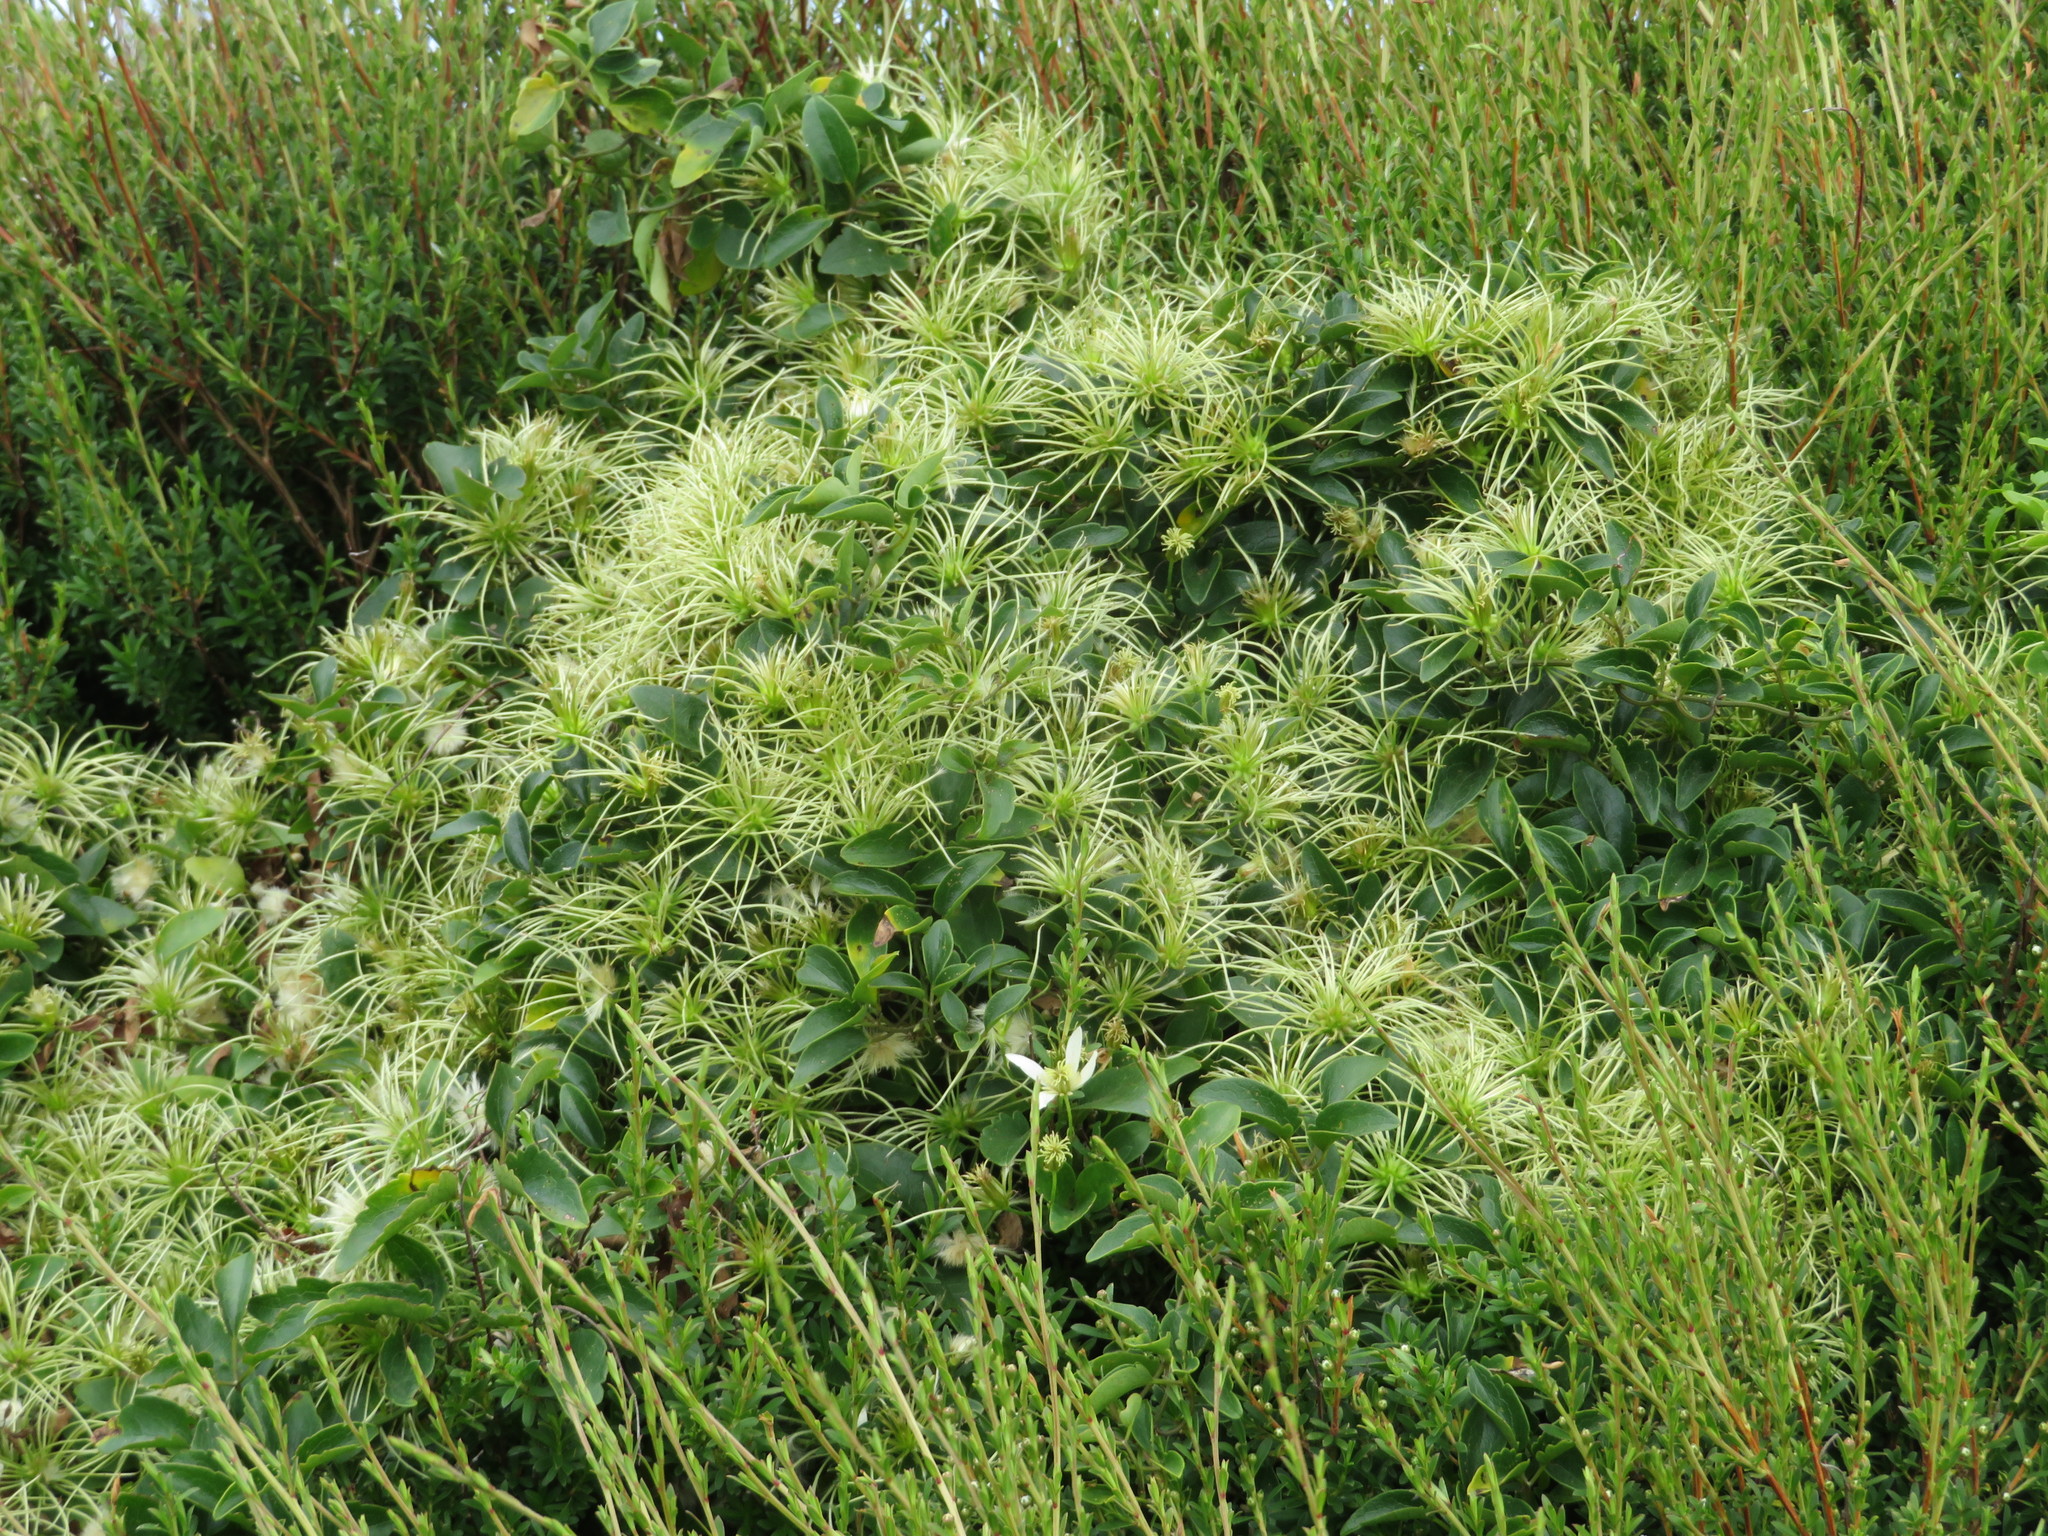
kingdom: Plantae
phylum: Tracheophyta
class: Magnoliopsida
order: Ranunculales
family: Ranunculaceae
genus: Clematis
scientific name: Clematis forsteri
